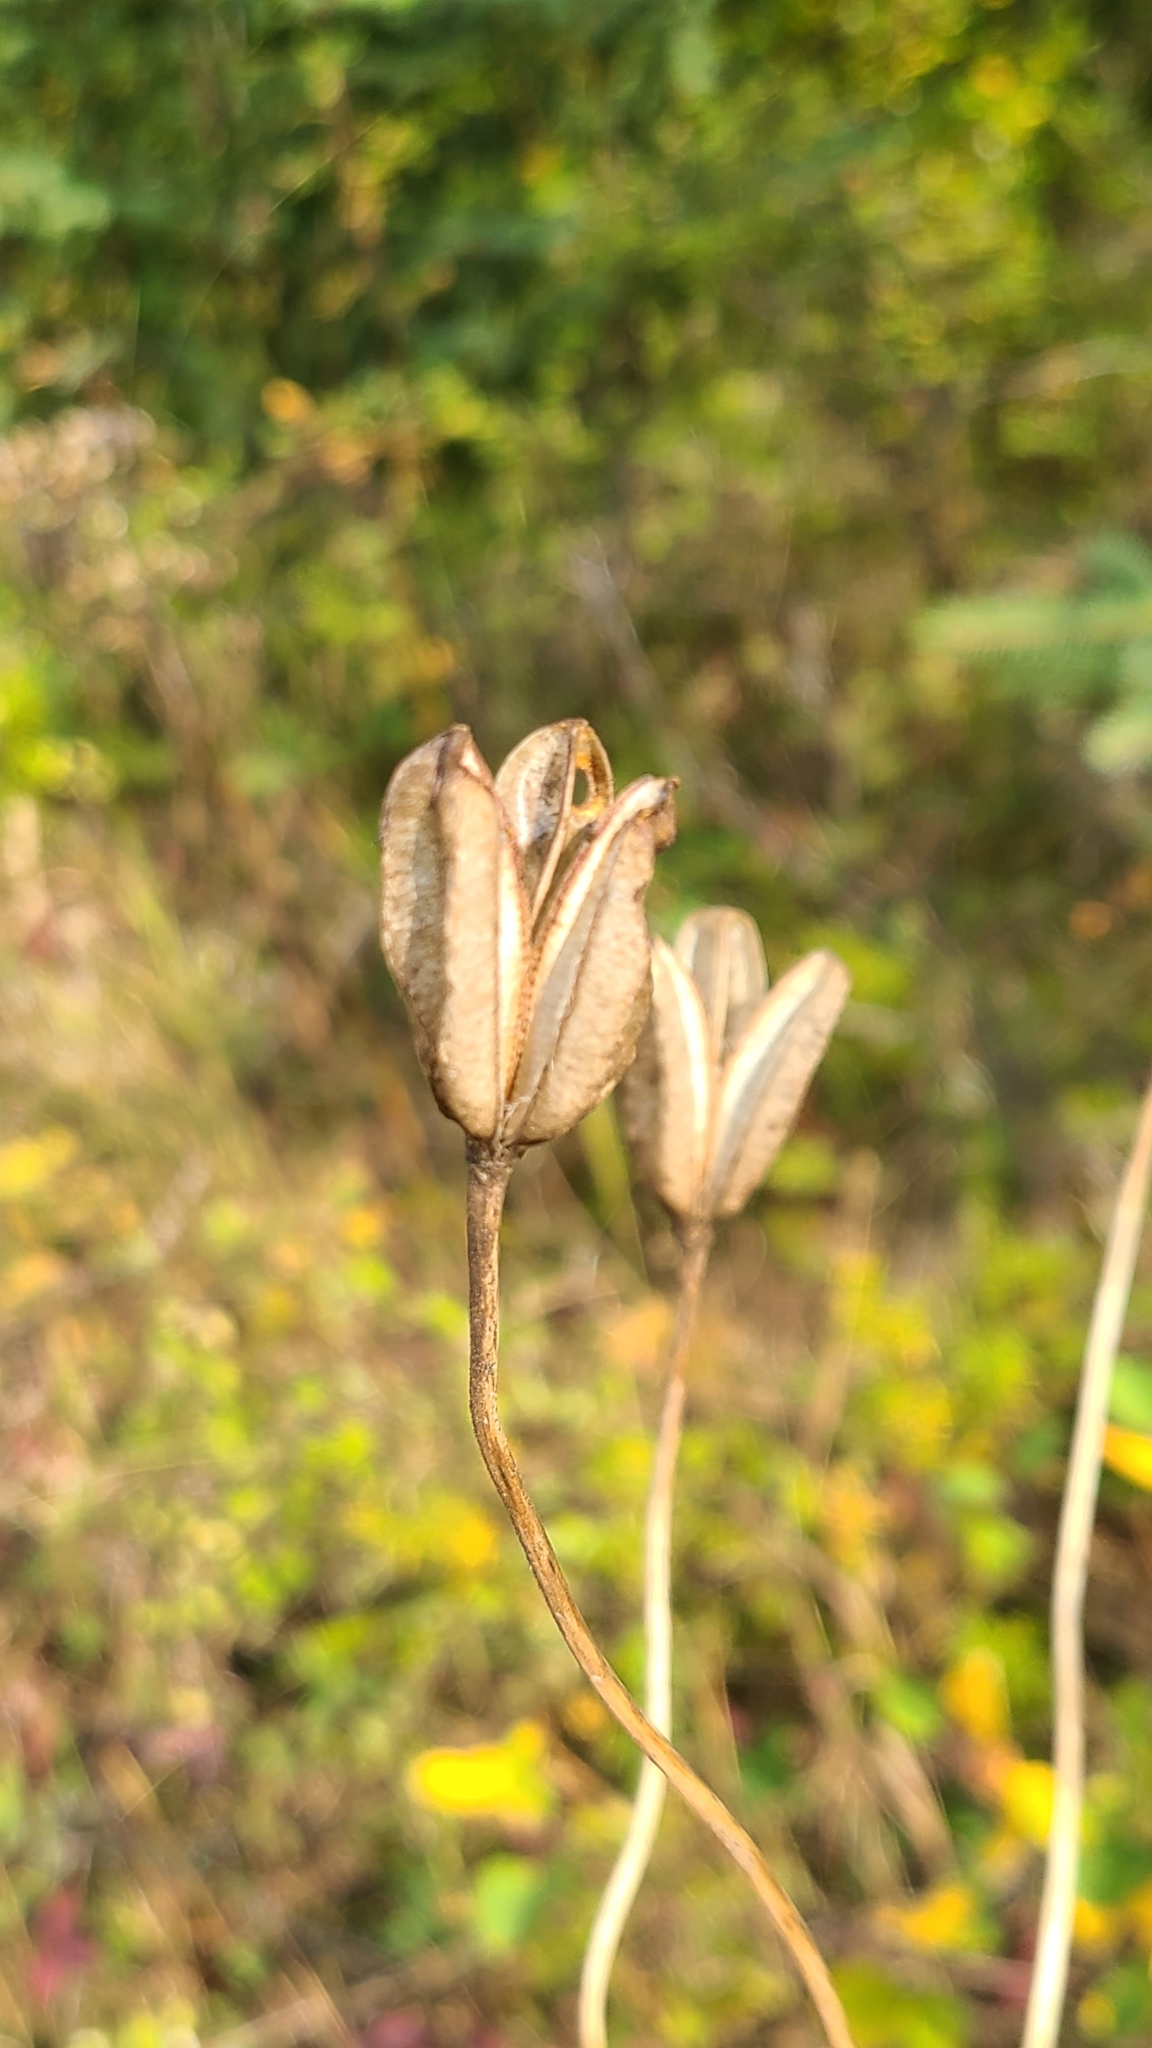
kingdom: Plantae
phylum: Tracheophyta
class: Liliopsida
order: Liliales
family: Liliaceae
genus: Lilium
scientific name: Lilium columbianum
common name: Columbia lily
